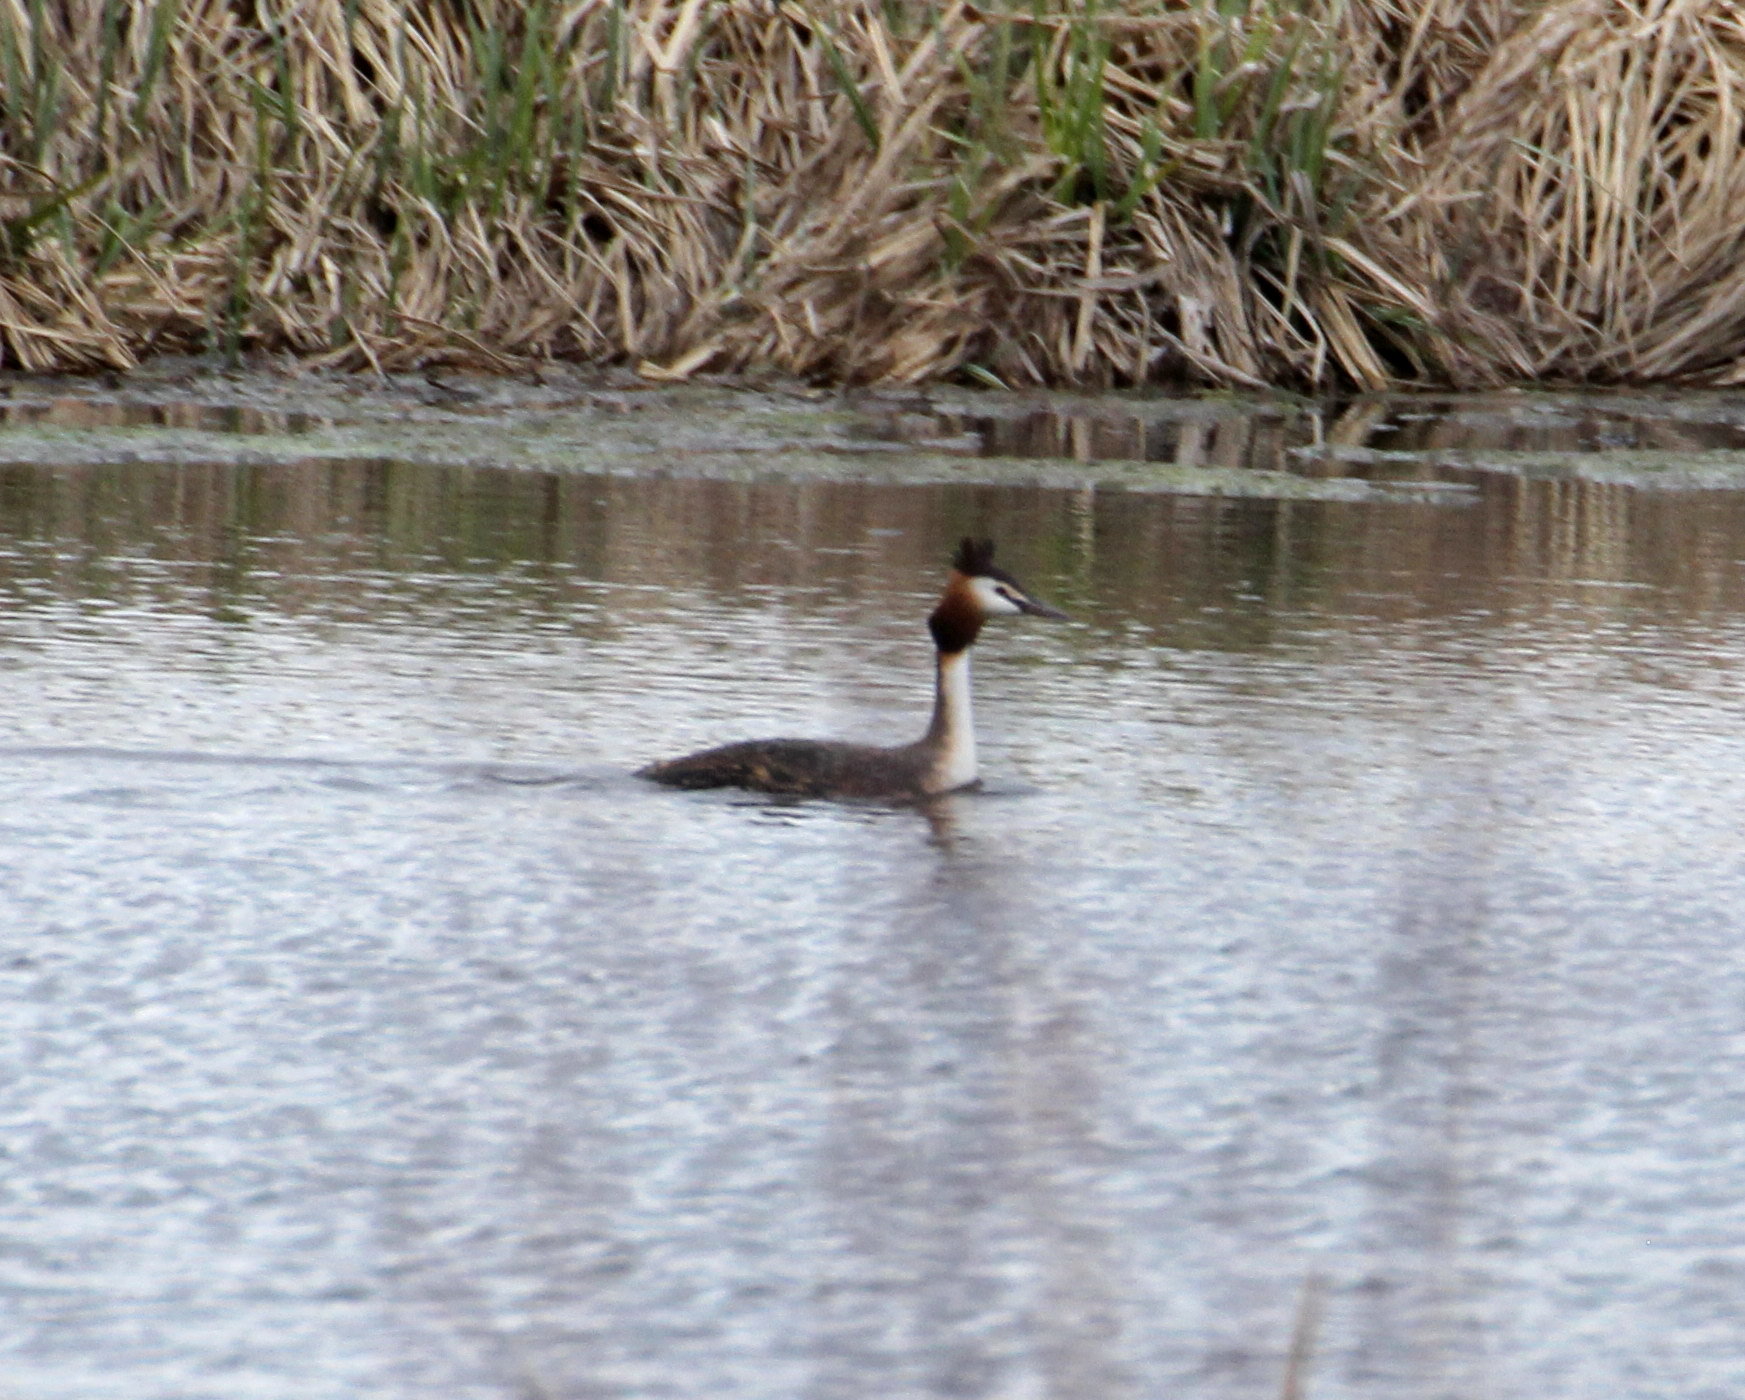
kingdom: Animalia
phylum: Chordata
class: Aves
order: Podicipediformes
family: Podicipedidae
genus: Podiceps
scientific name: Podiceps cristatus
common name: Great crested grebe
